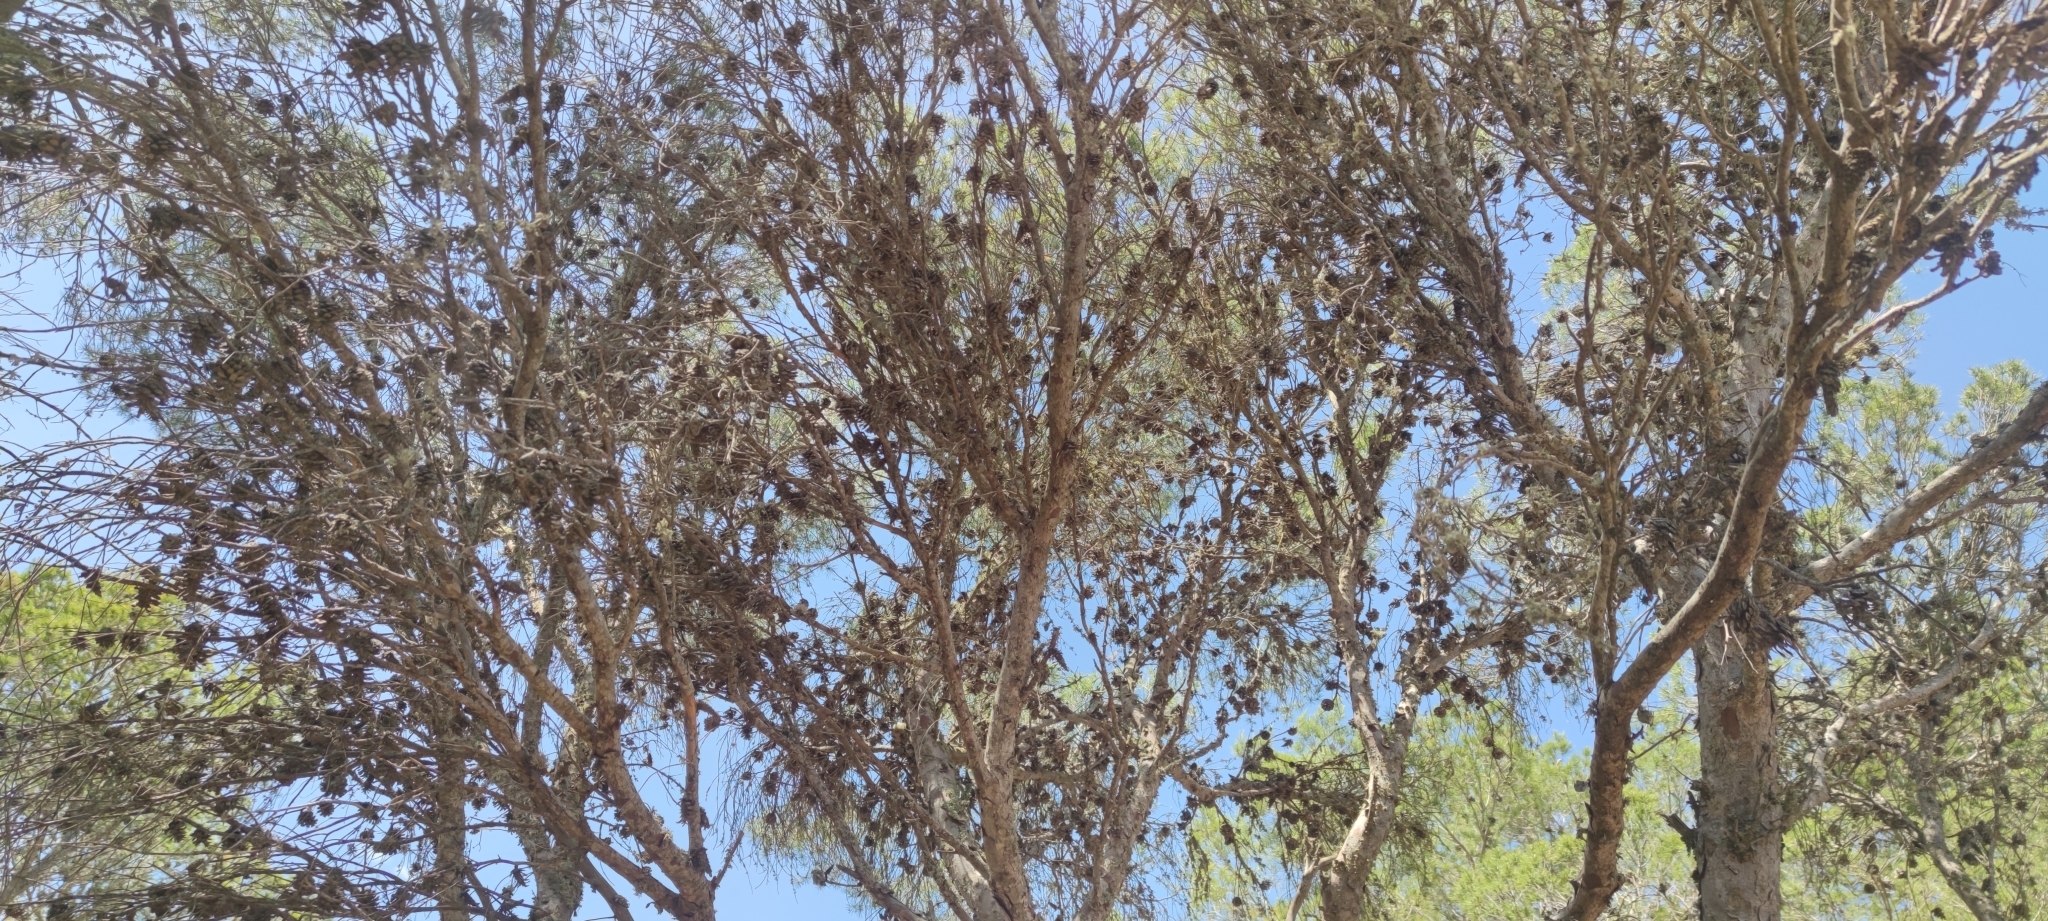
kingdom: Plantae
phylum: Tracheophyta
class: Pinopsida
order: Pinales
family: Pinaceae
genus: Pinus
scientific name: Pinus halepensis
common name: Aleppo pine
